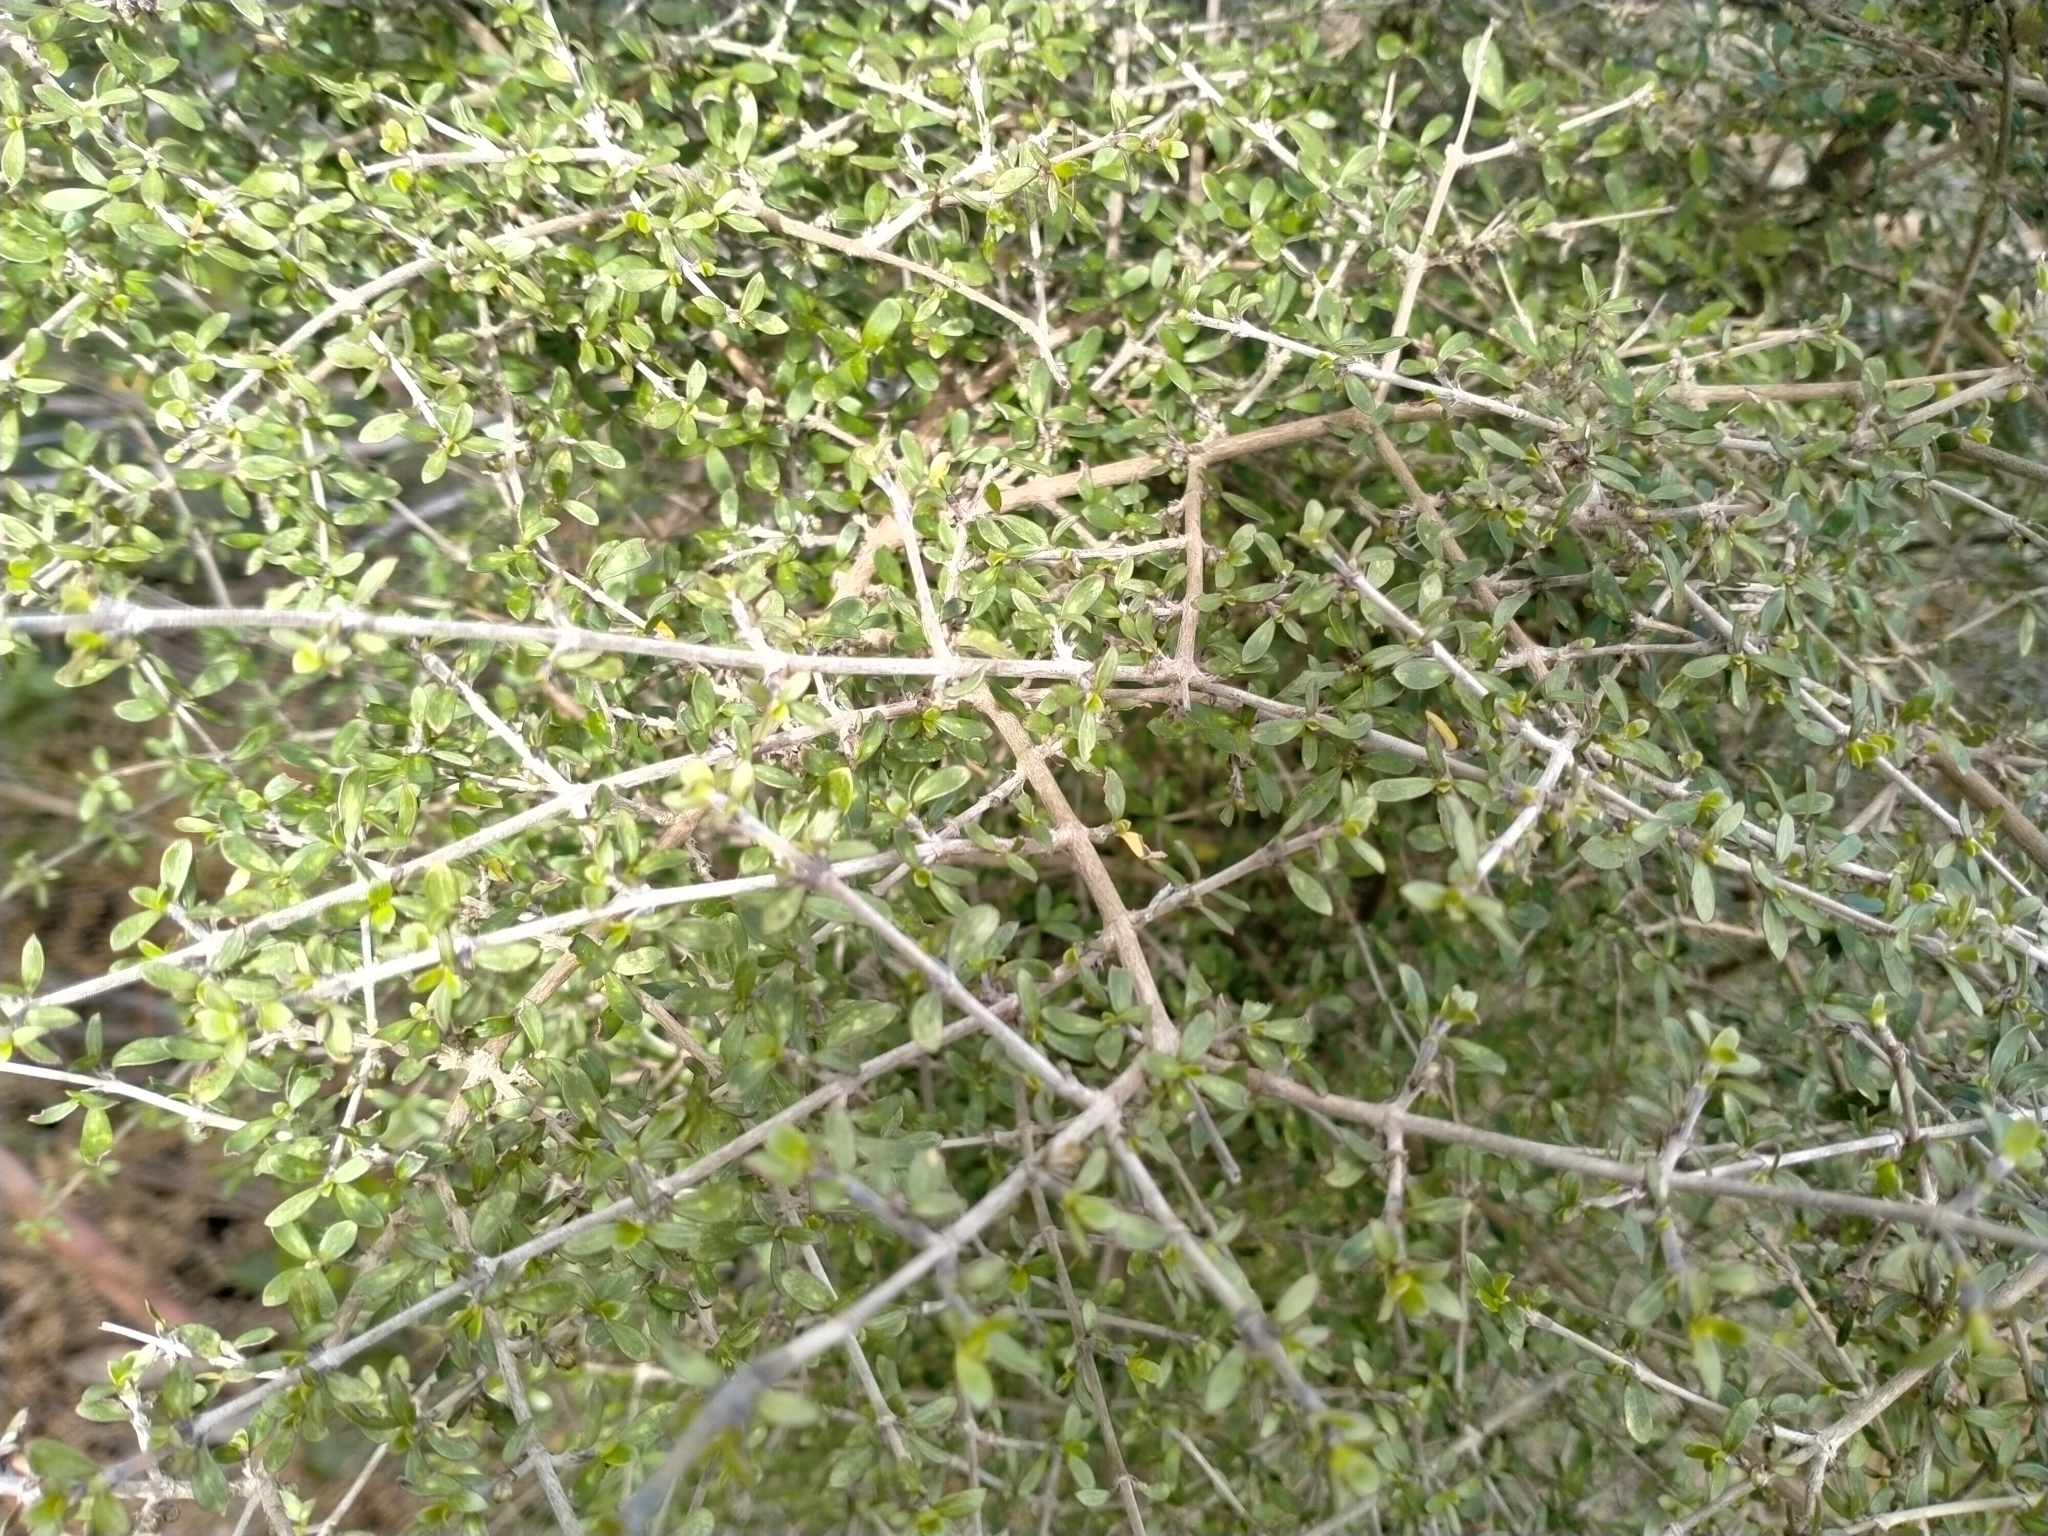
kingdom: Plantae
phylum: Tracheophyta
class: Magnoliopsida
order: Gentianales
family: Rubiaceae
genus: Coprosma
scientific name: Coprosma dumosa
